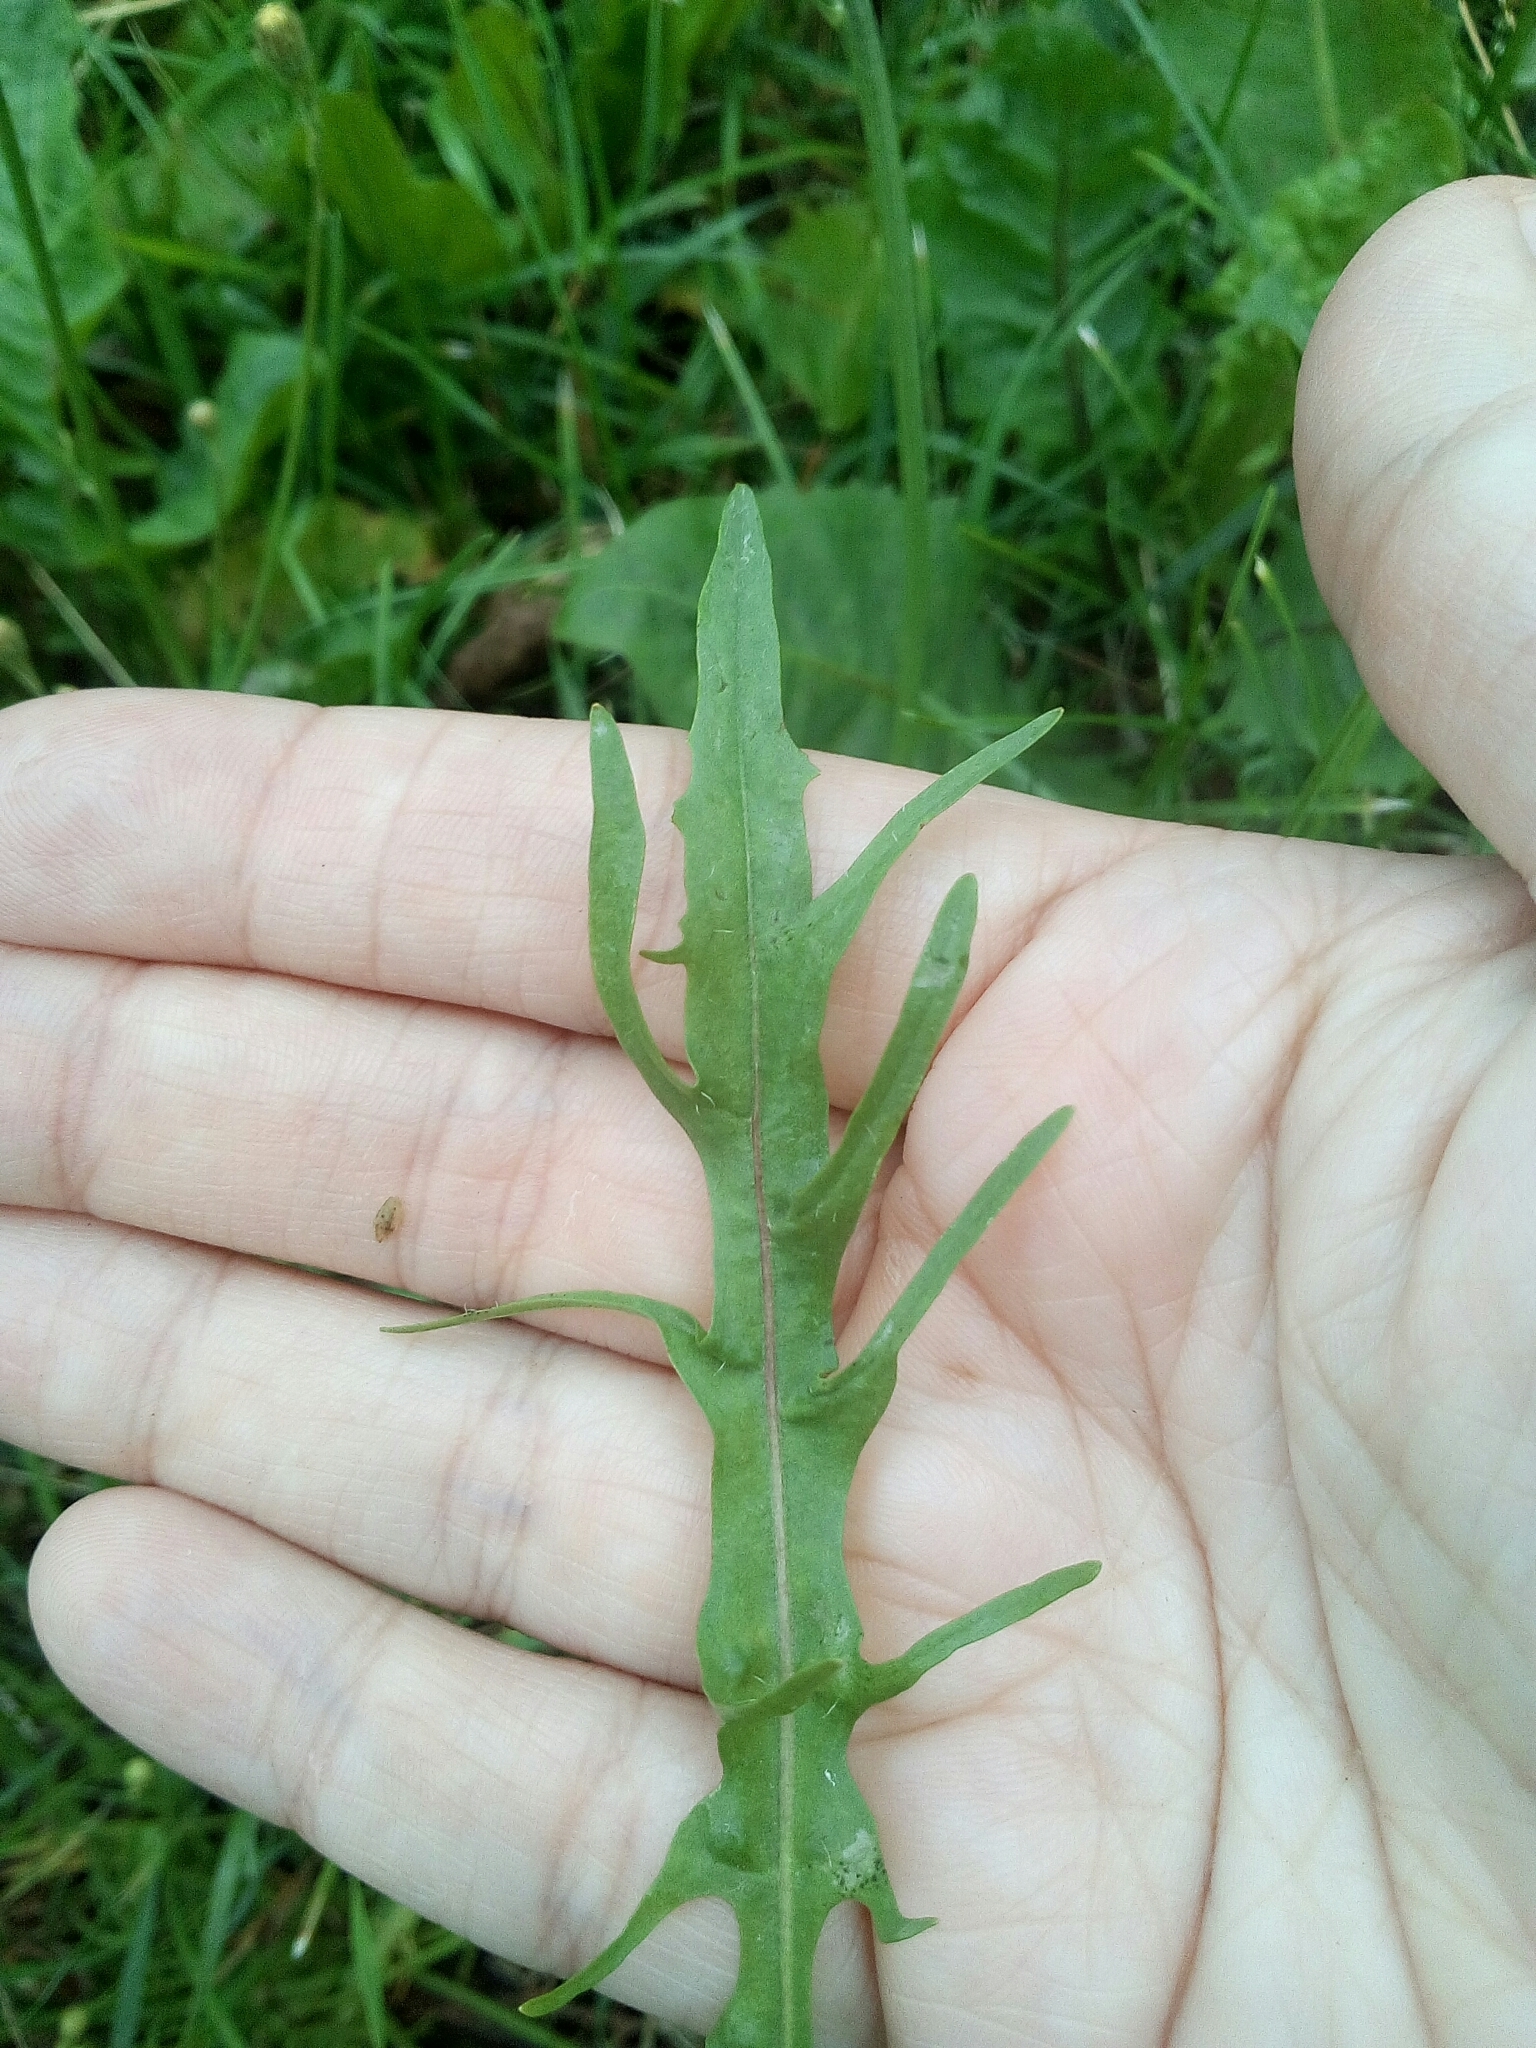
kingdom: Plantae
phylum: Tracheophyta
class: Magnoliopsida
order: Asterales
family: Asteraceae
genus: Scorzoneroides
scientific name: Scorzoneroides autumnalis
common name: Autumn hawkbit
